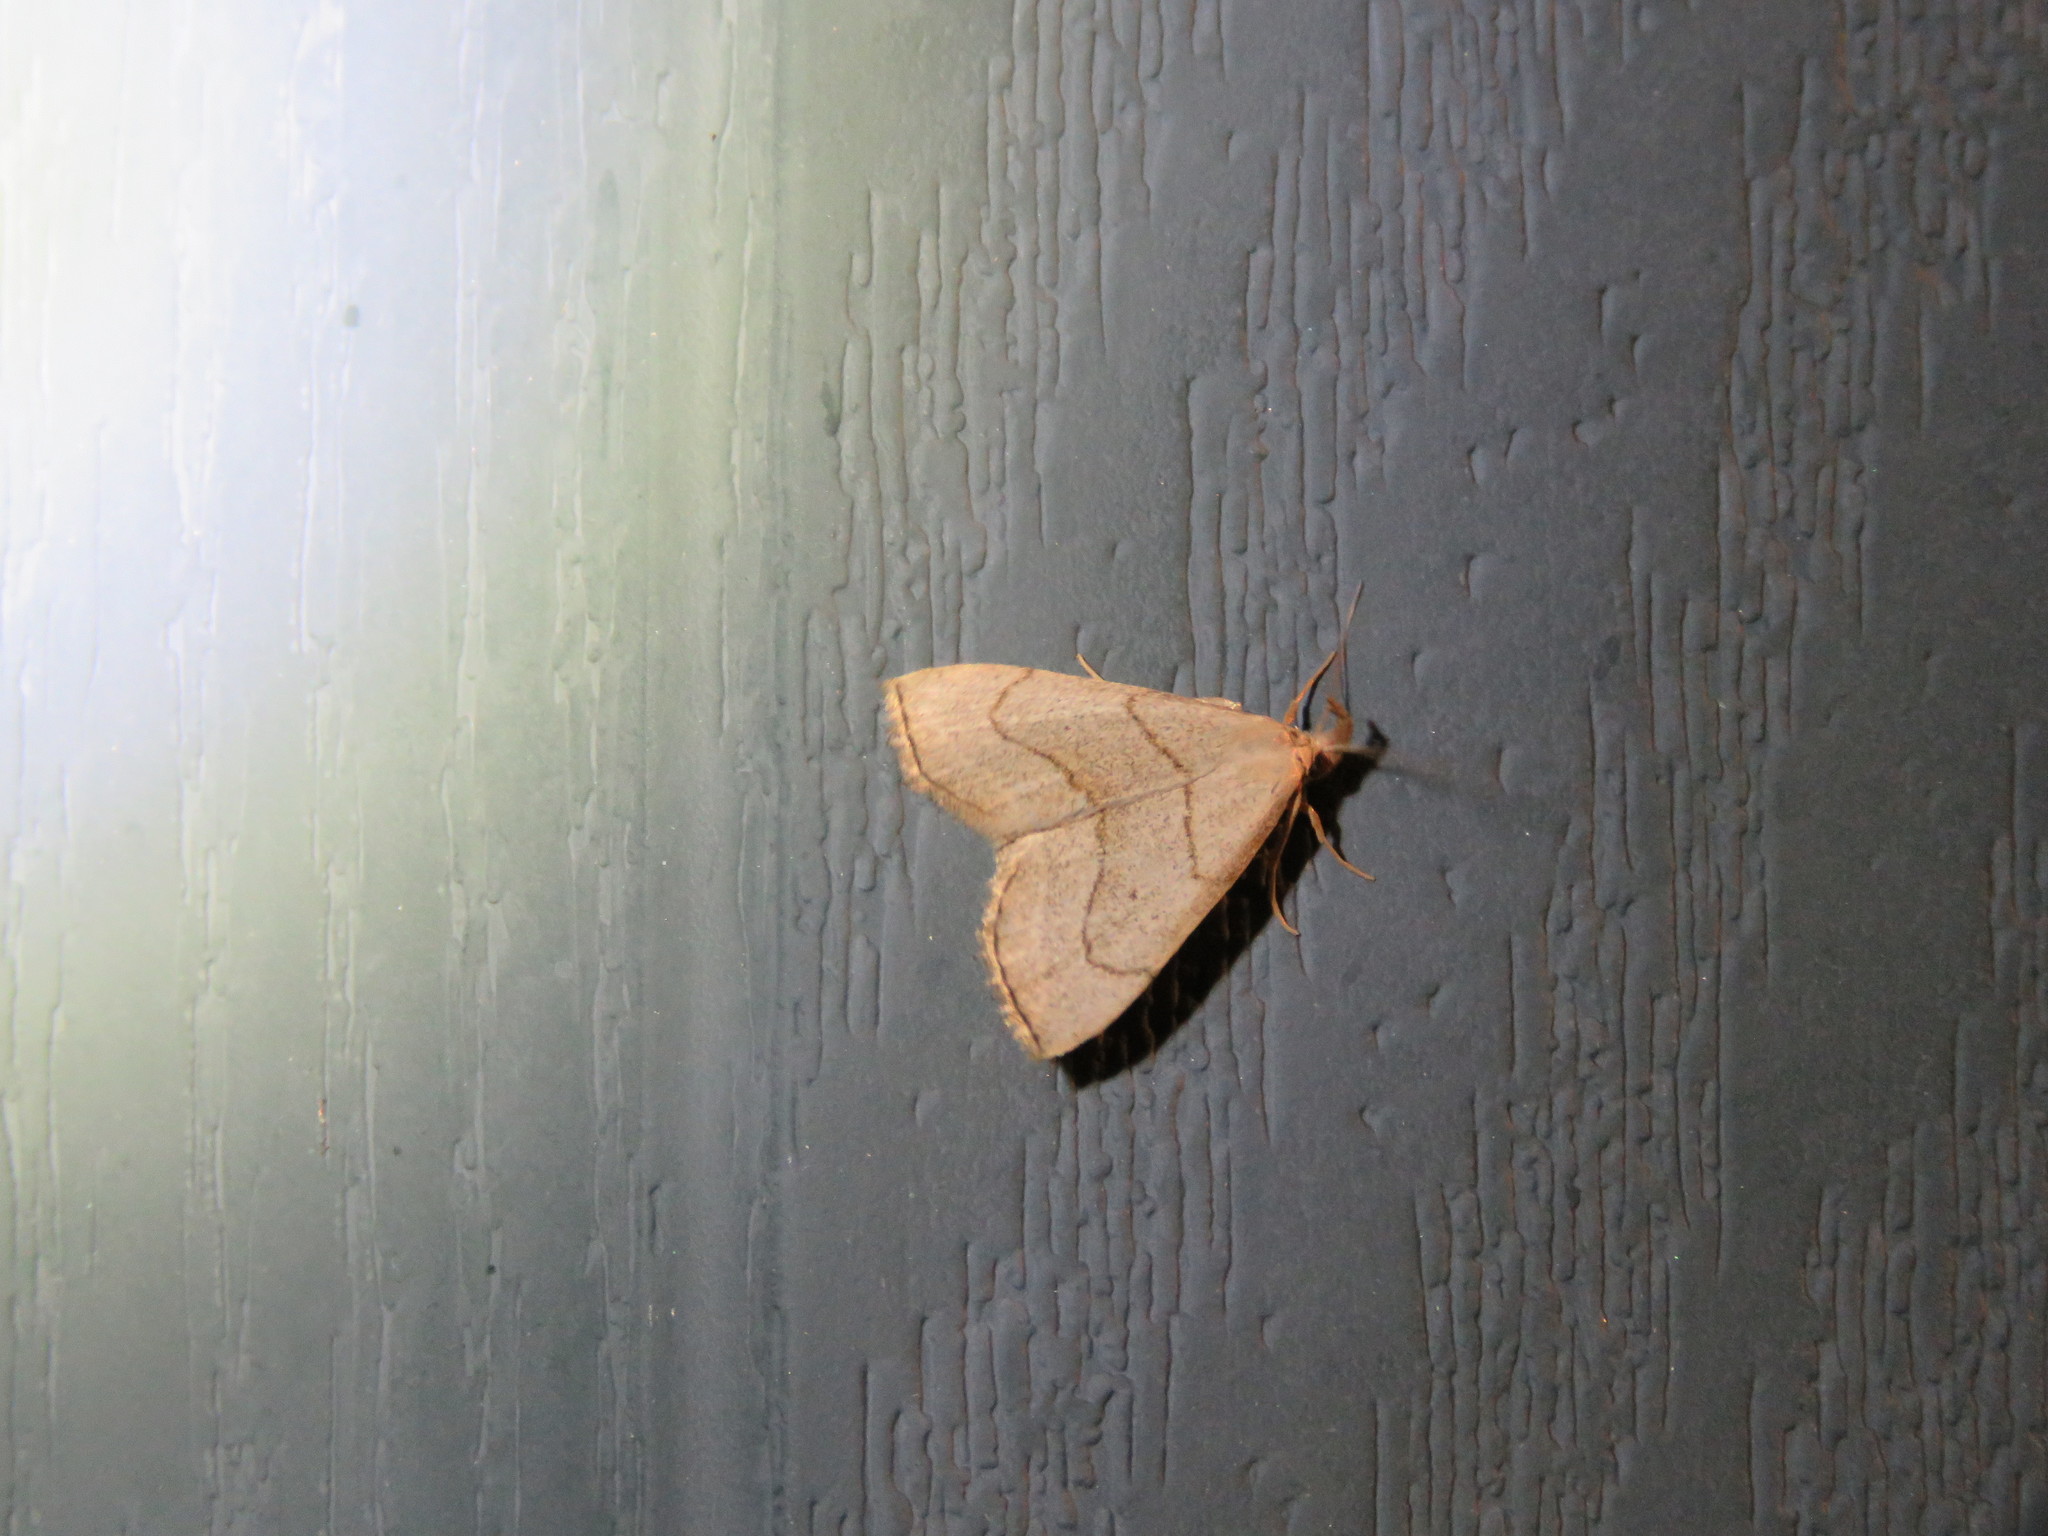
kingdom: Animalia
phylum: Arthropoda
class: Insecta
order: Lepidoptera
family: Erebidae
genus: Macrochilo
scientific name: Macrochilo litophora
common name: Brown-lined owlet
